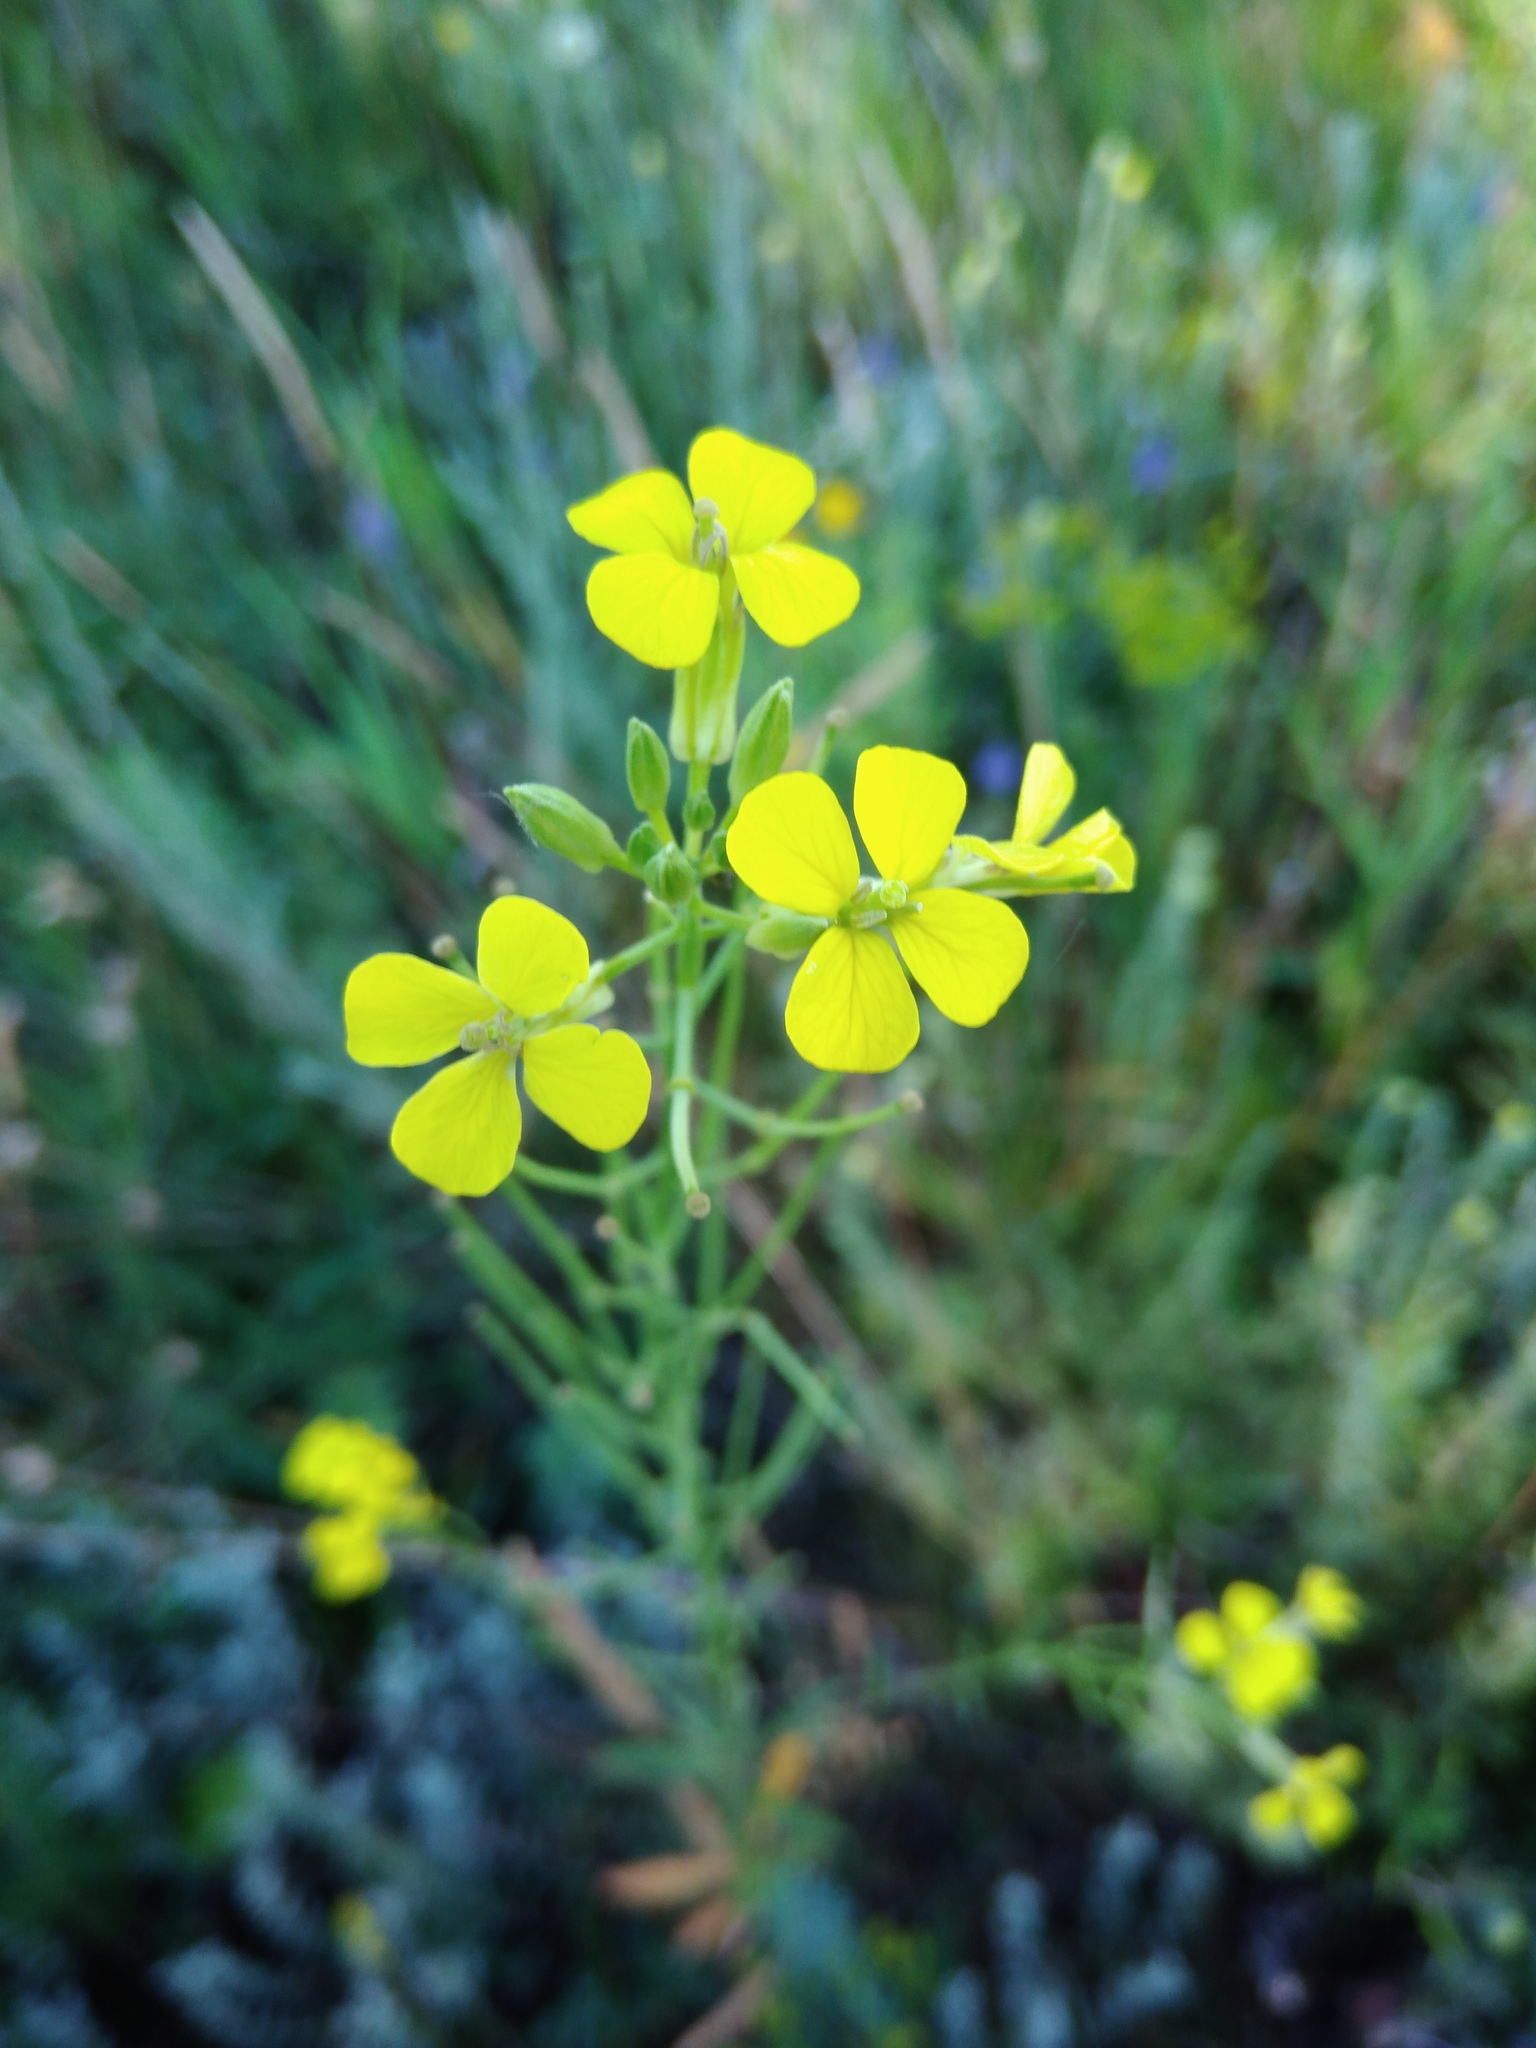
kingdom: Plantae
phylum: Tracheophyta
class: Magnoliopsida
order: Brassicales
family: Brassicaceae
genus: Erysimum
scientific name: Erysimum diffusum
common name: Diffuse wallflower
